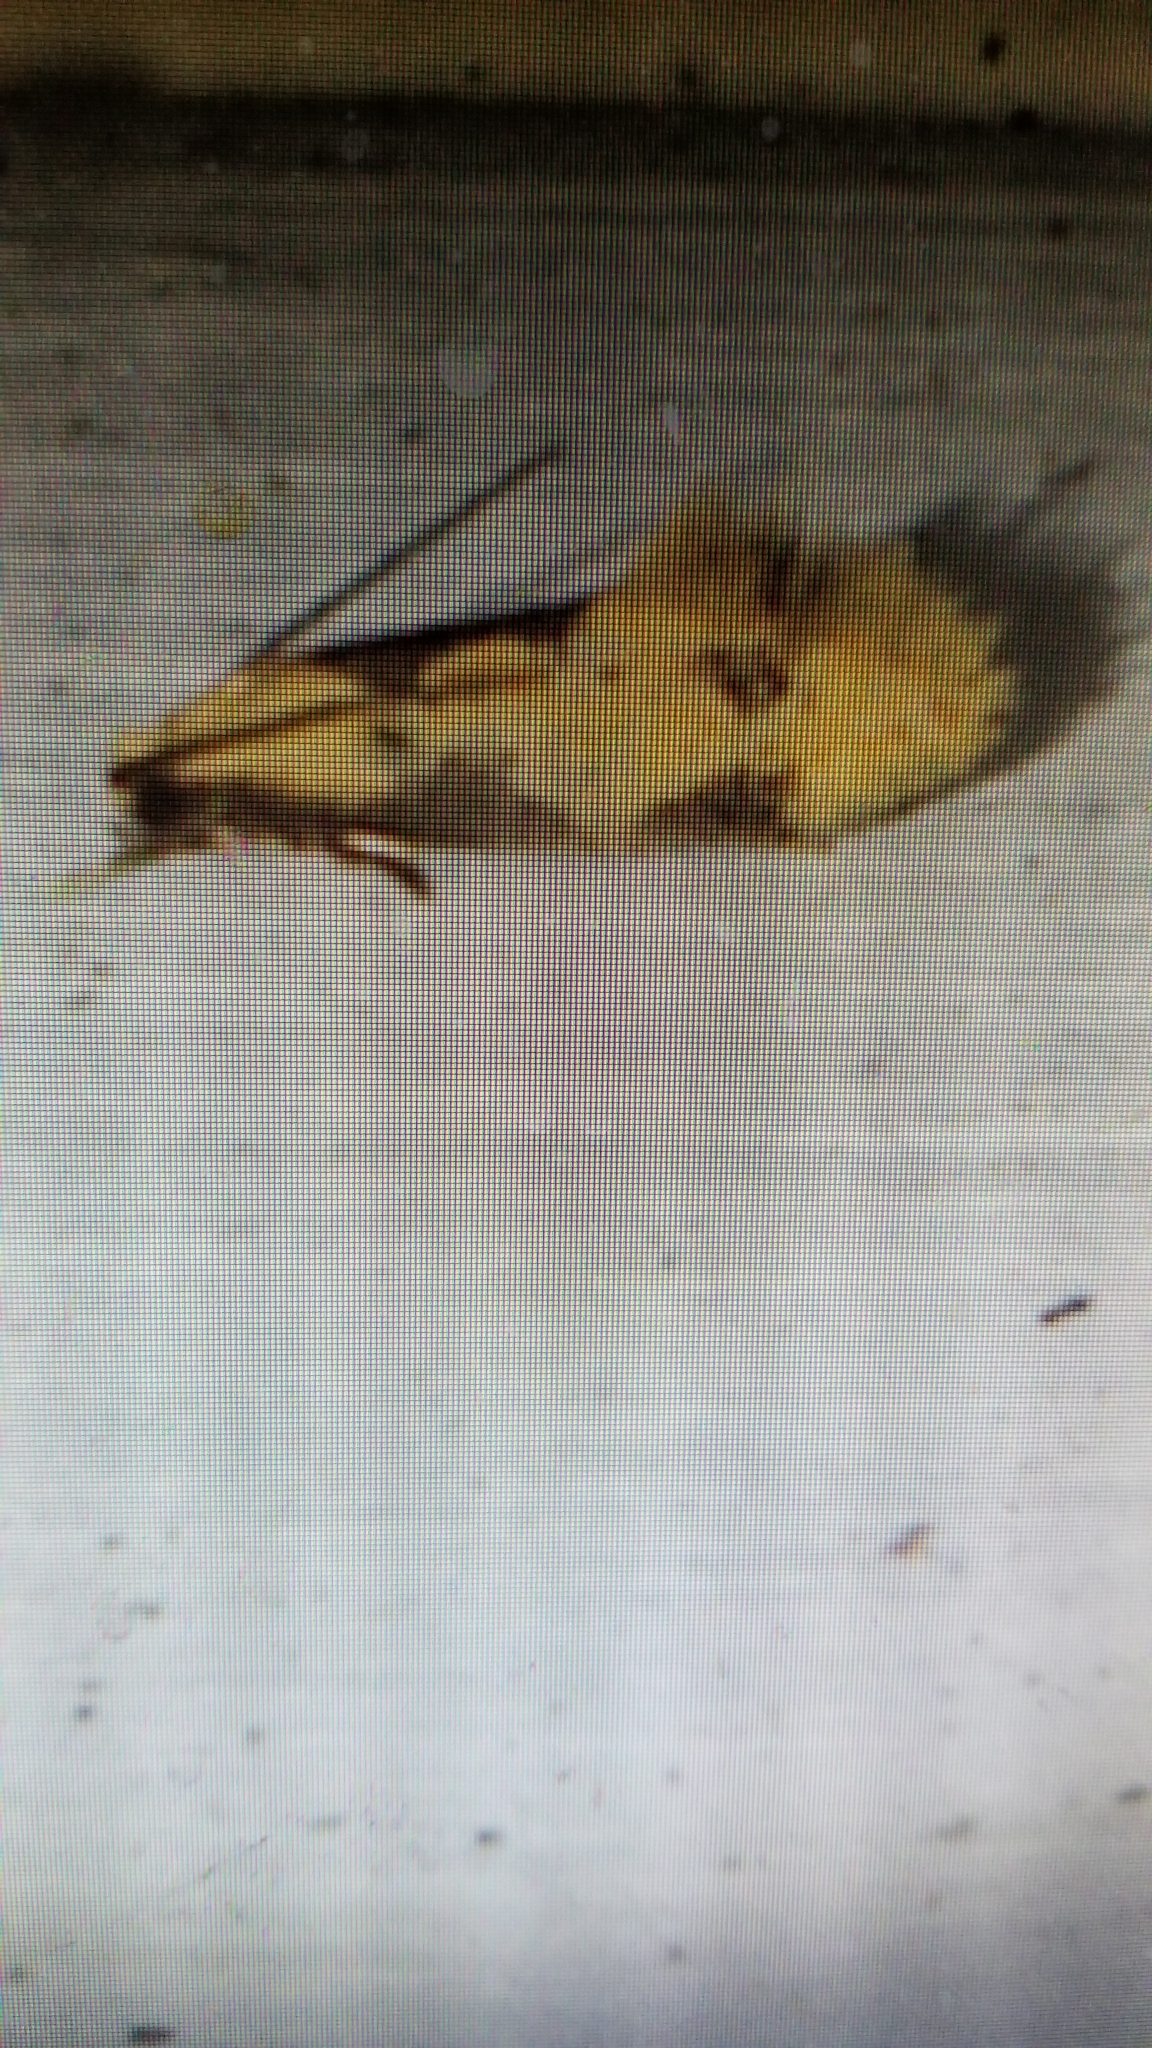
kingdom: Animalia
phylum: Arthropoda
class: Insecta
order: Lepidoptera
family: Meessiidae
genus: Hybroma
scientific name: Hybroma servulella
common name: Yellow wave moth
